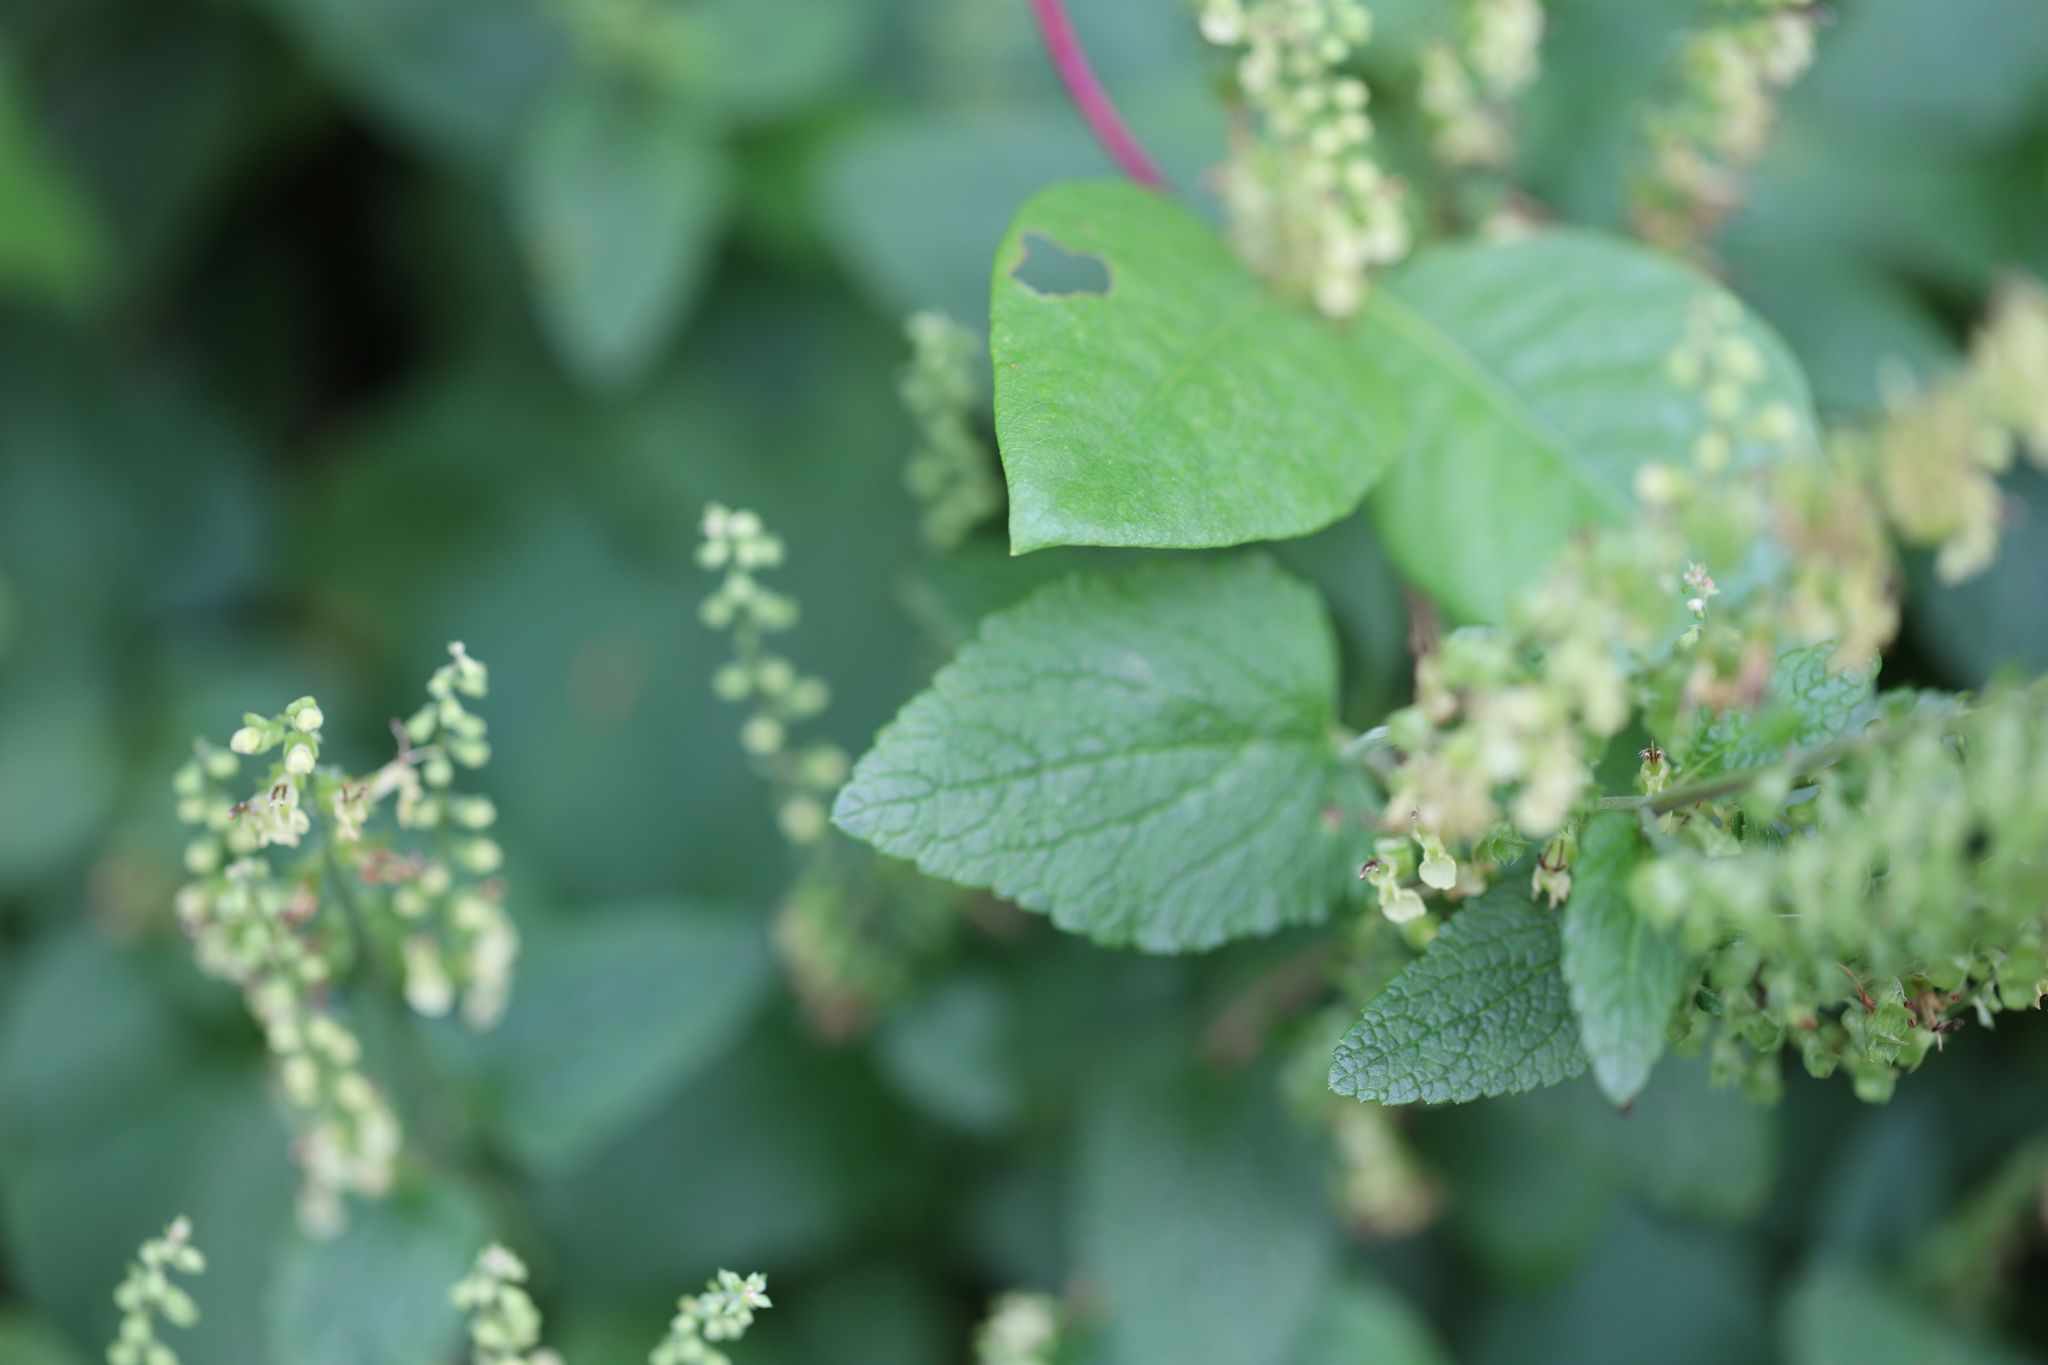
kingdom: Plantae
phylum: Tracheophyta
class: Magnoliopsida
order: Lamiales
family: Lamiaceae
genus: Teucrium
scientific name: Teucrium scorodonia
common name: Woodland germander
